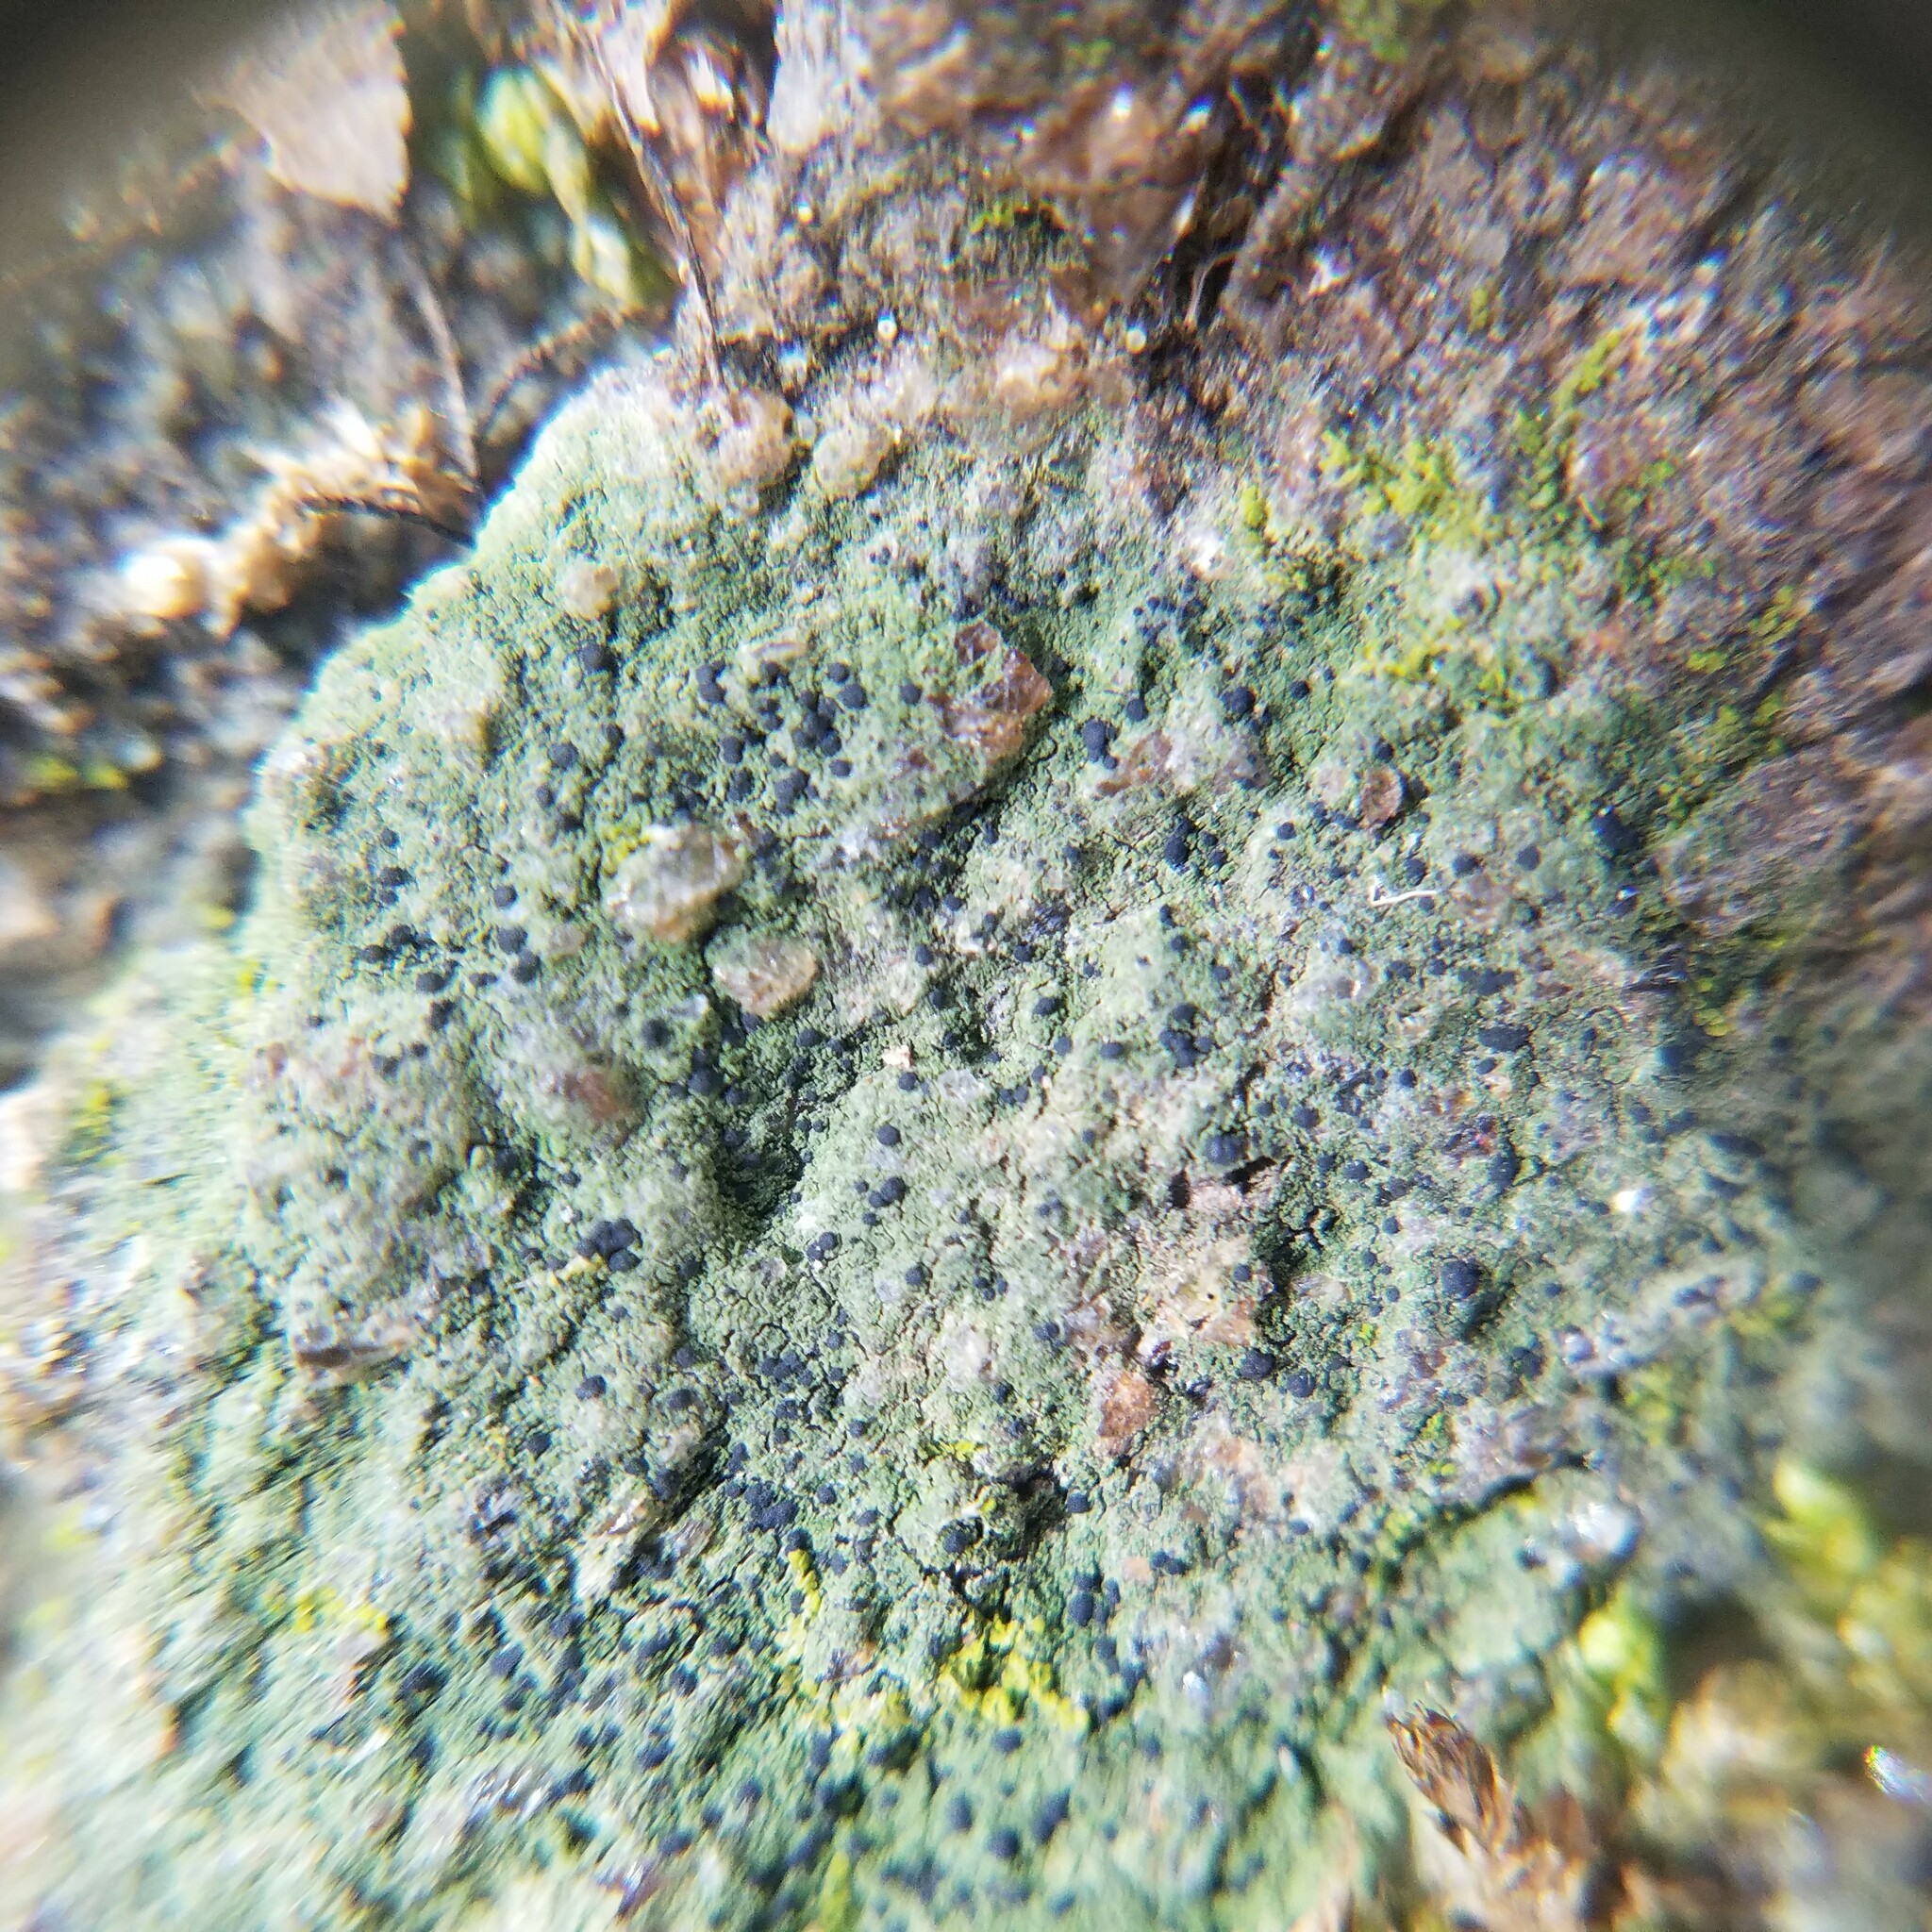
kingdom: Fungi
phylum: Ascomycota
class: Lecanoromycetes
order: Lecanorales
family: Byssolomataceae
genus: Fellhanera
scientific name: Fellhanera silicis
